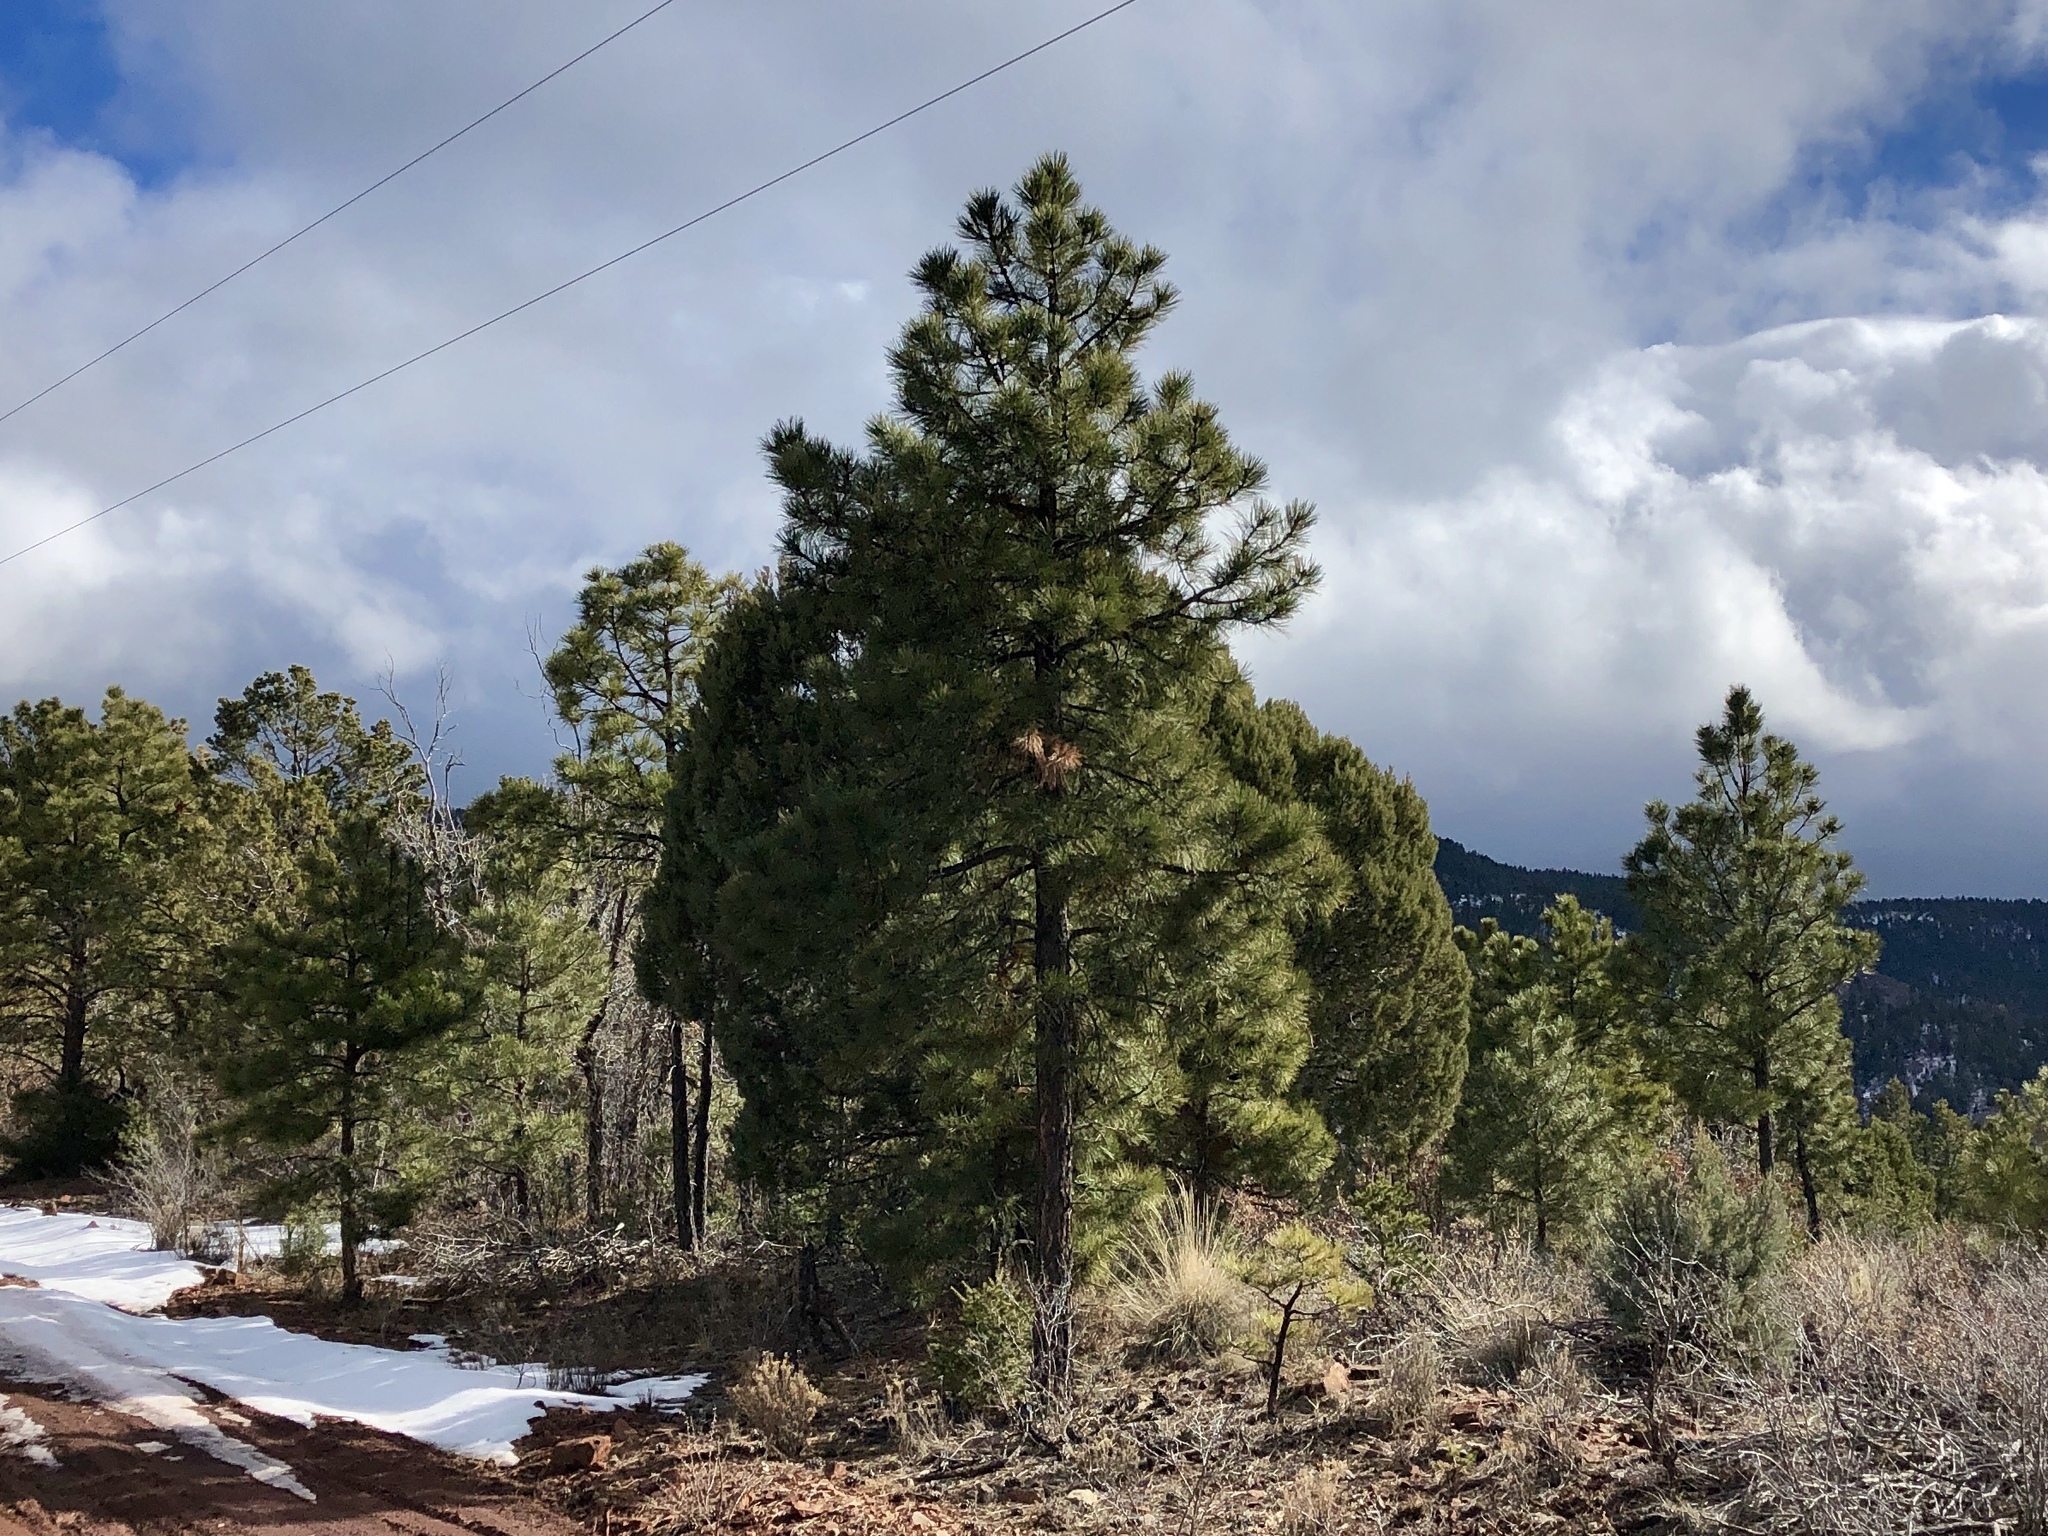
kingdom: Plantae
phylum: Tracheophyta
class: Pinopsida
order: Pinales
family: Pinaceae
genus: Pinus
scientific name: Pinus ponderosa
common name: Western yellow-pine
